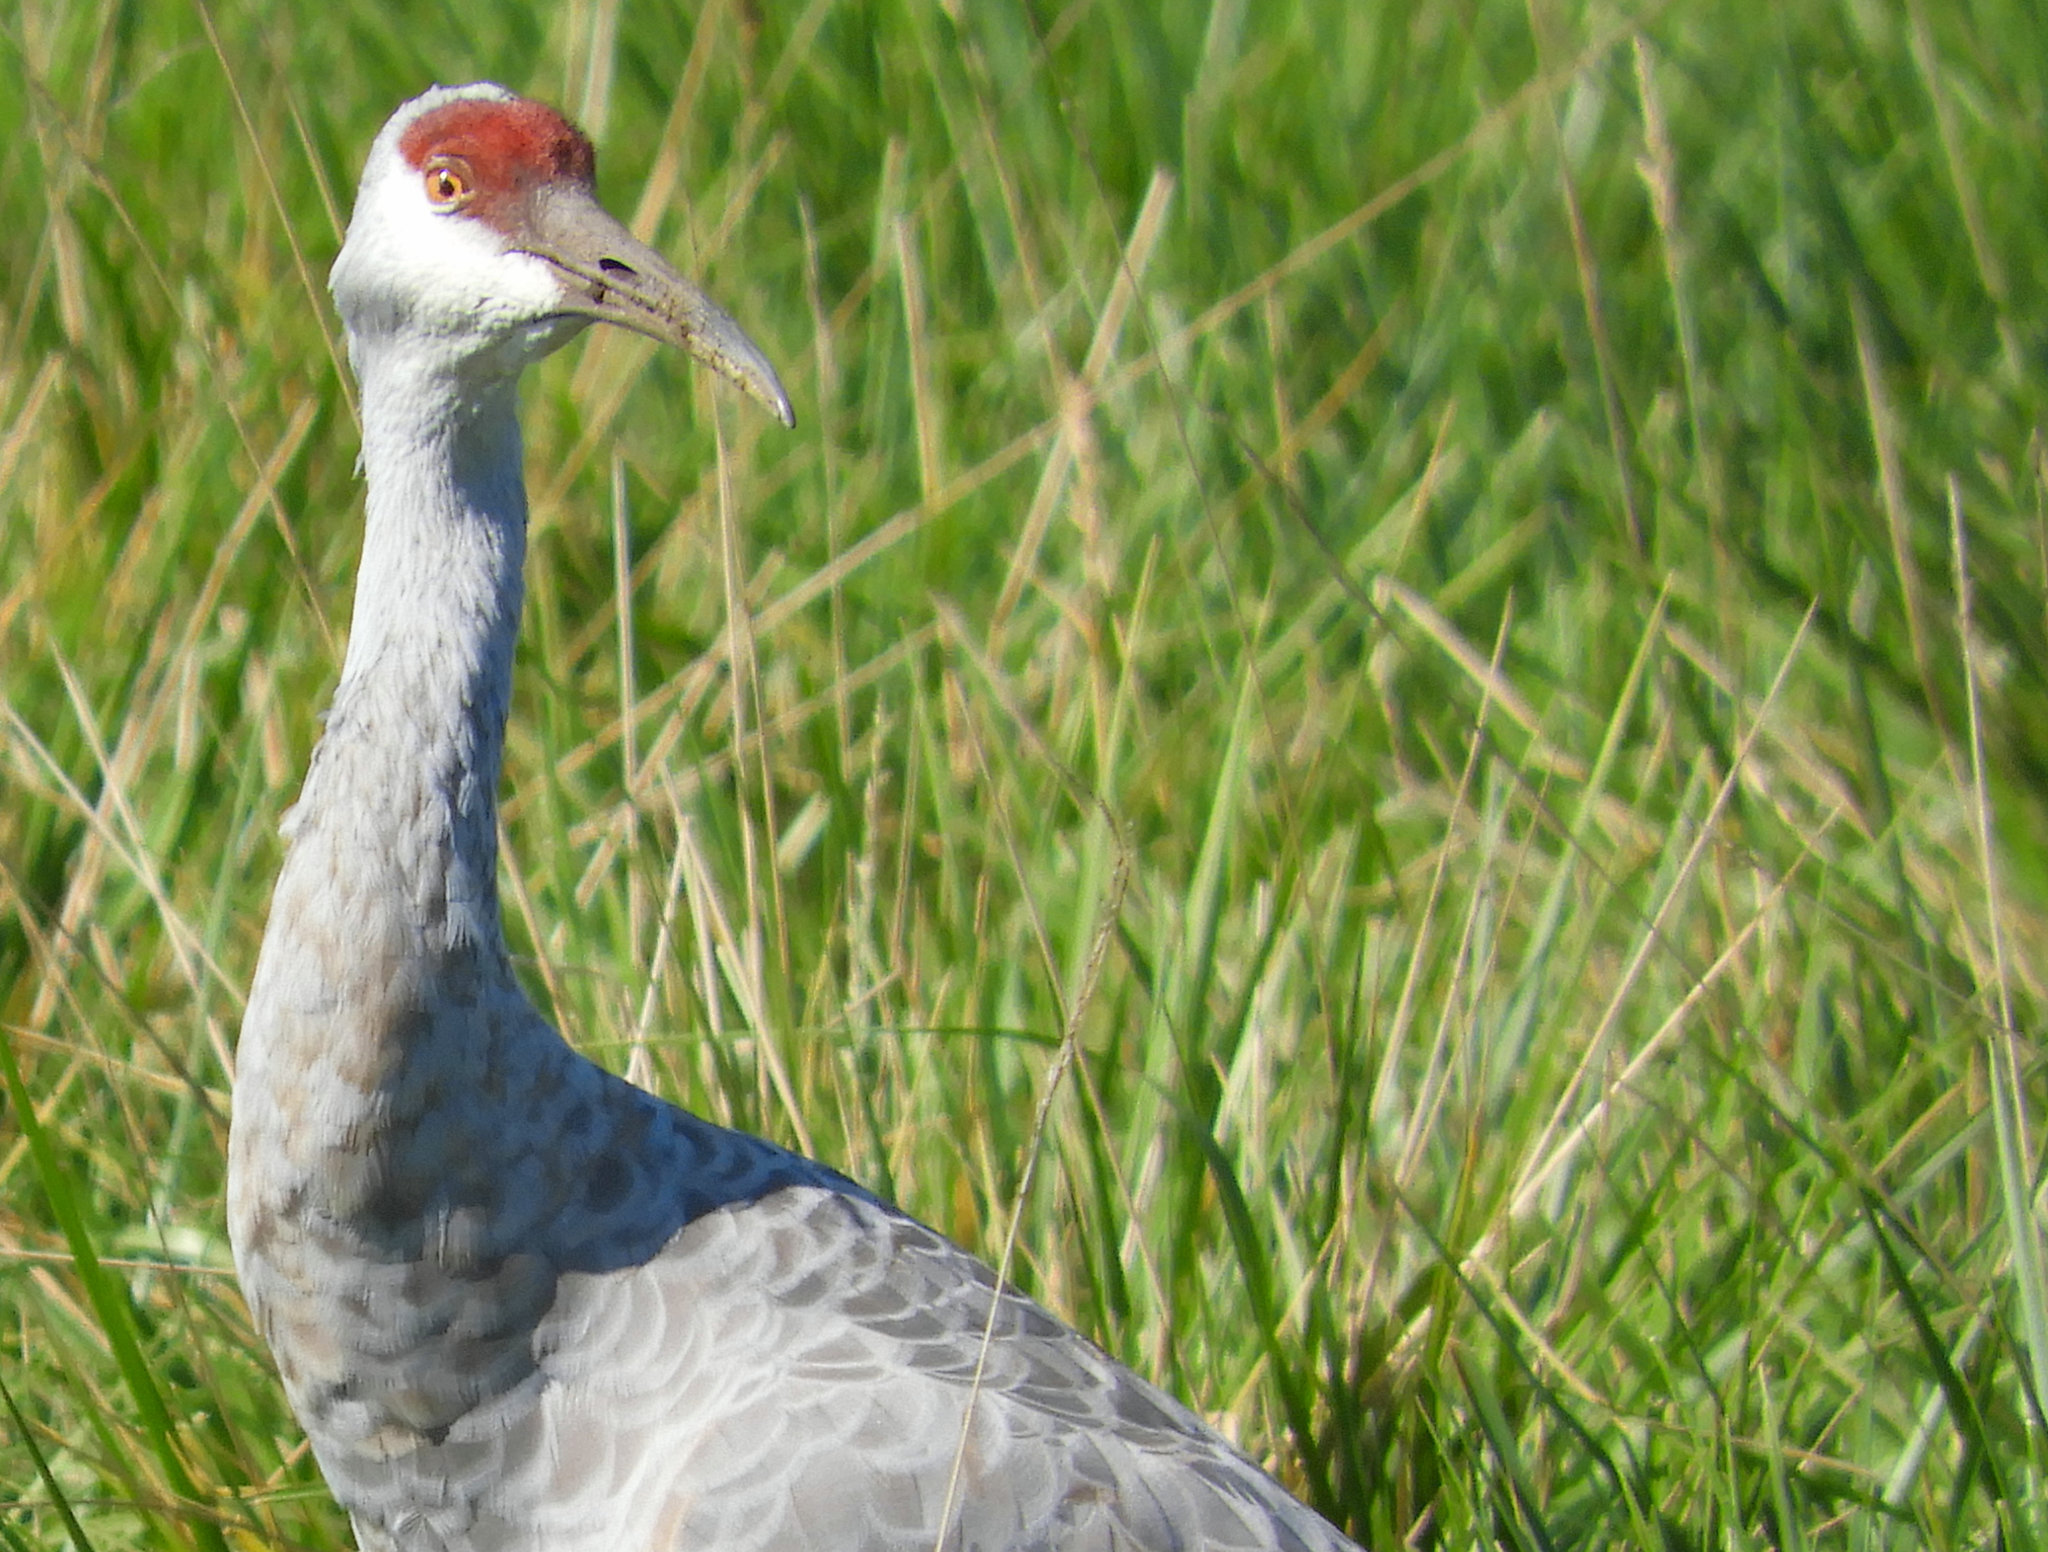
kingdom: Animalia
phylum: Chordata
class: Aves
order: Gruiformes
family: Gruidae
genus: Grus
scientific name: Grus canadensis
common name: Sandhill crane
